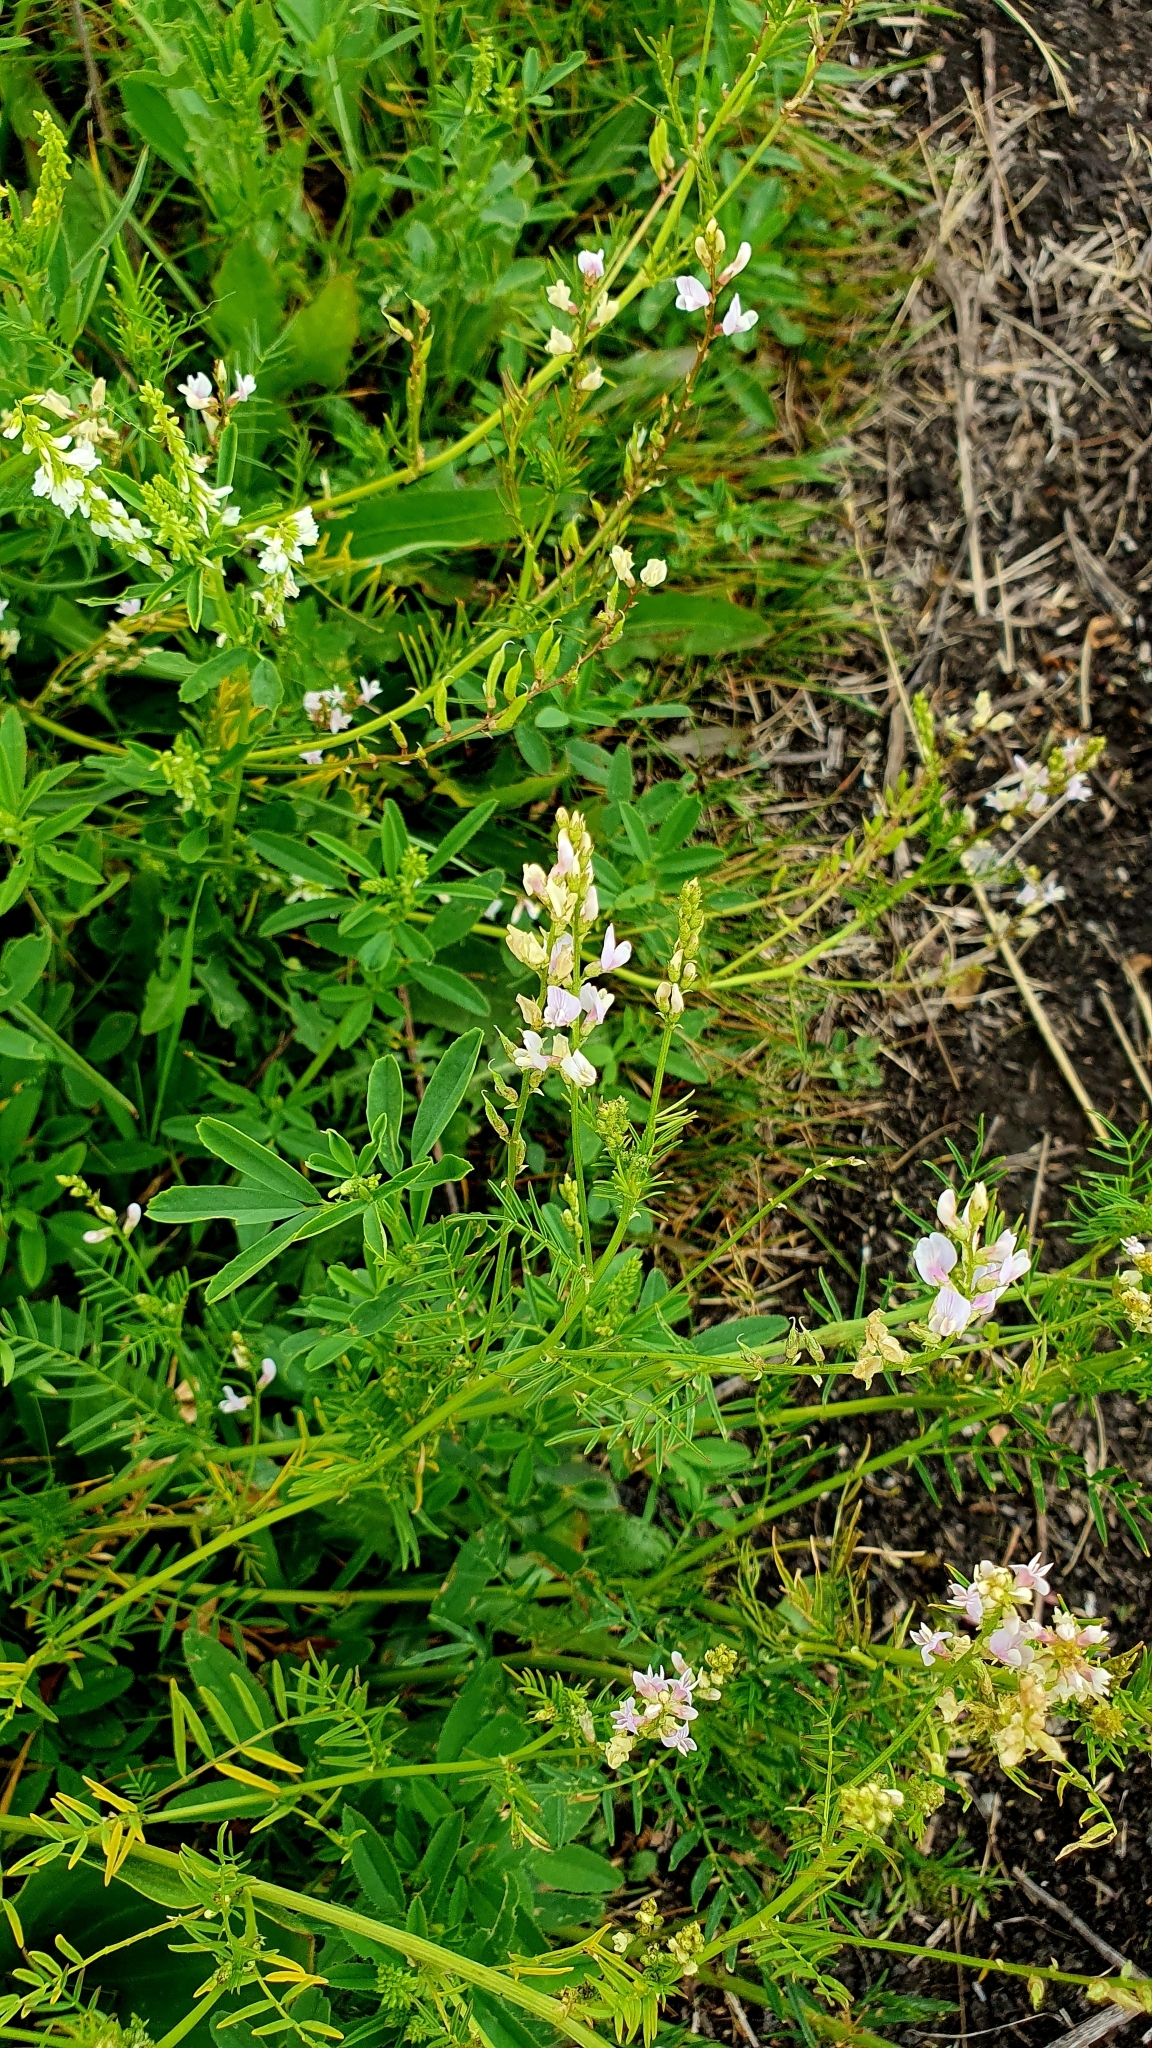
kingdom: Plantae
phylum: Tracheophyta
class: Magnoliopsida
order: Fabales
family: Fabaceae
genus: Astragalus
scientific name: Astragalus sulcatus
